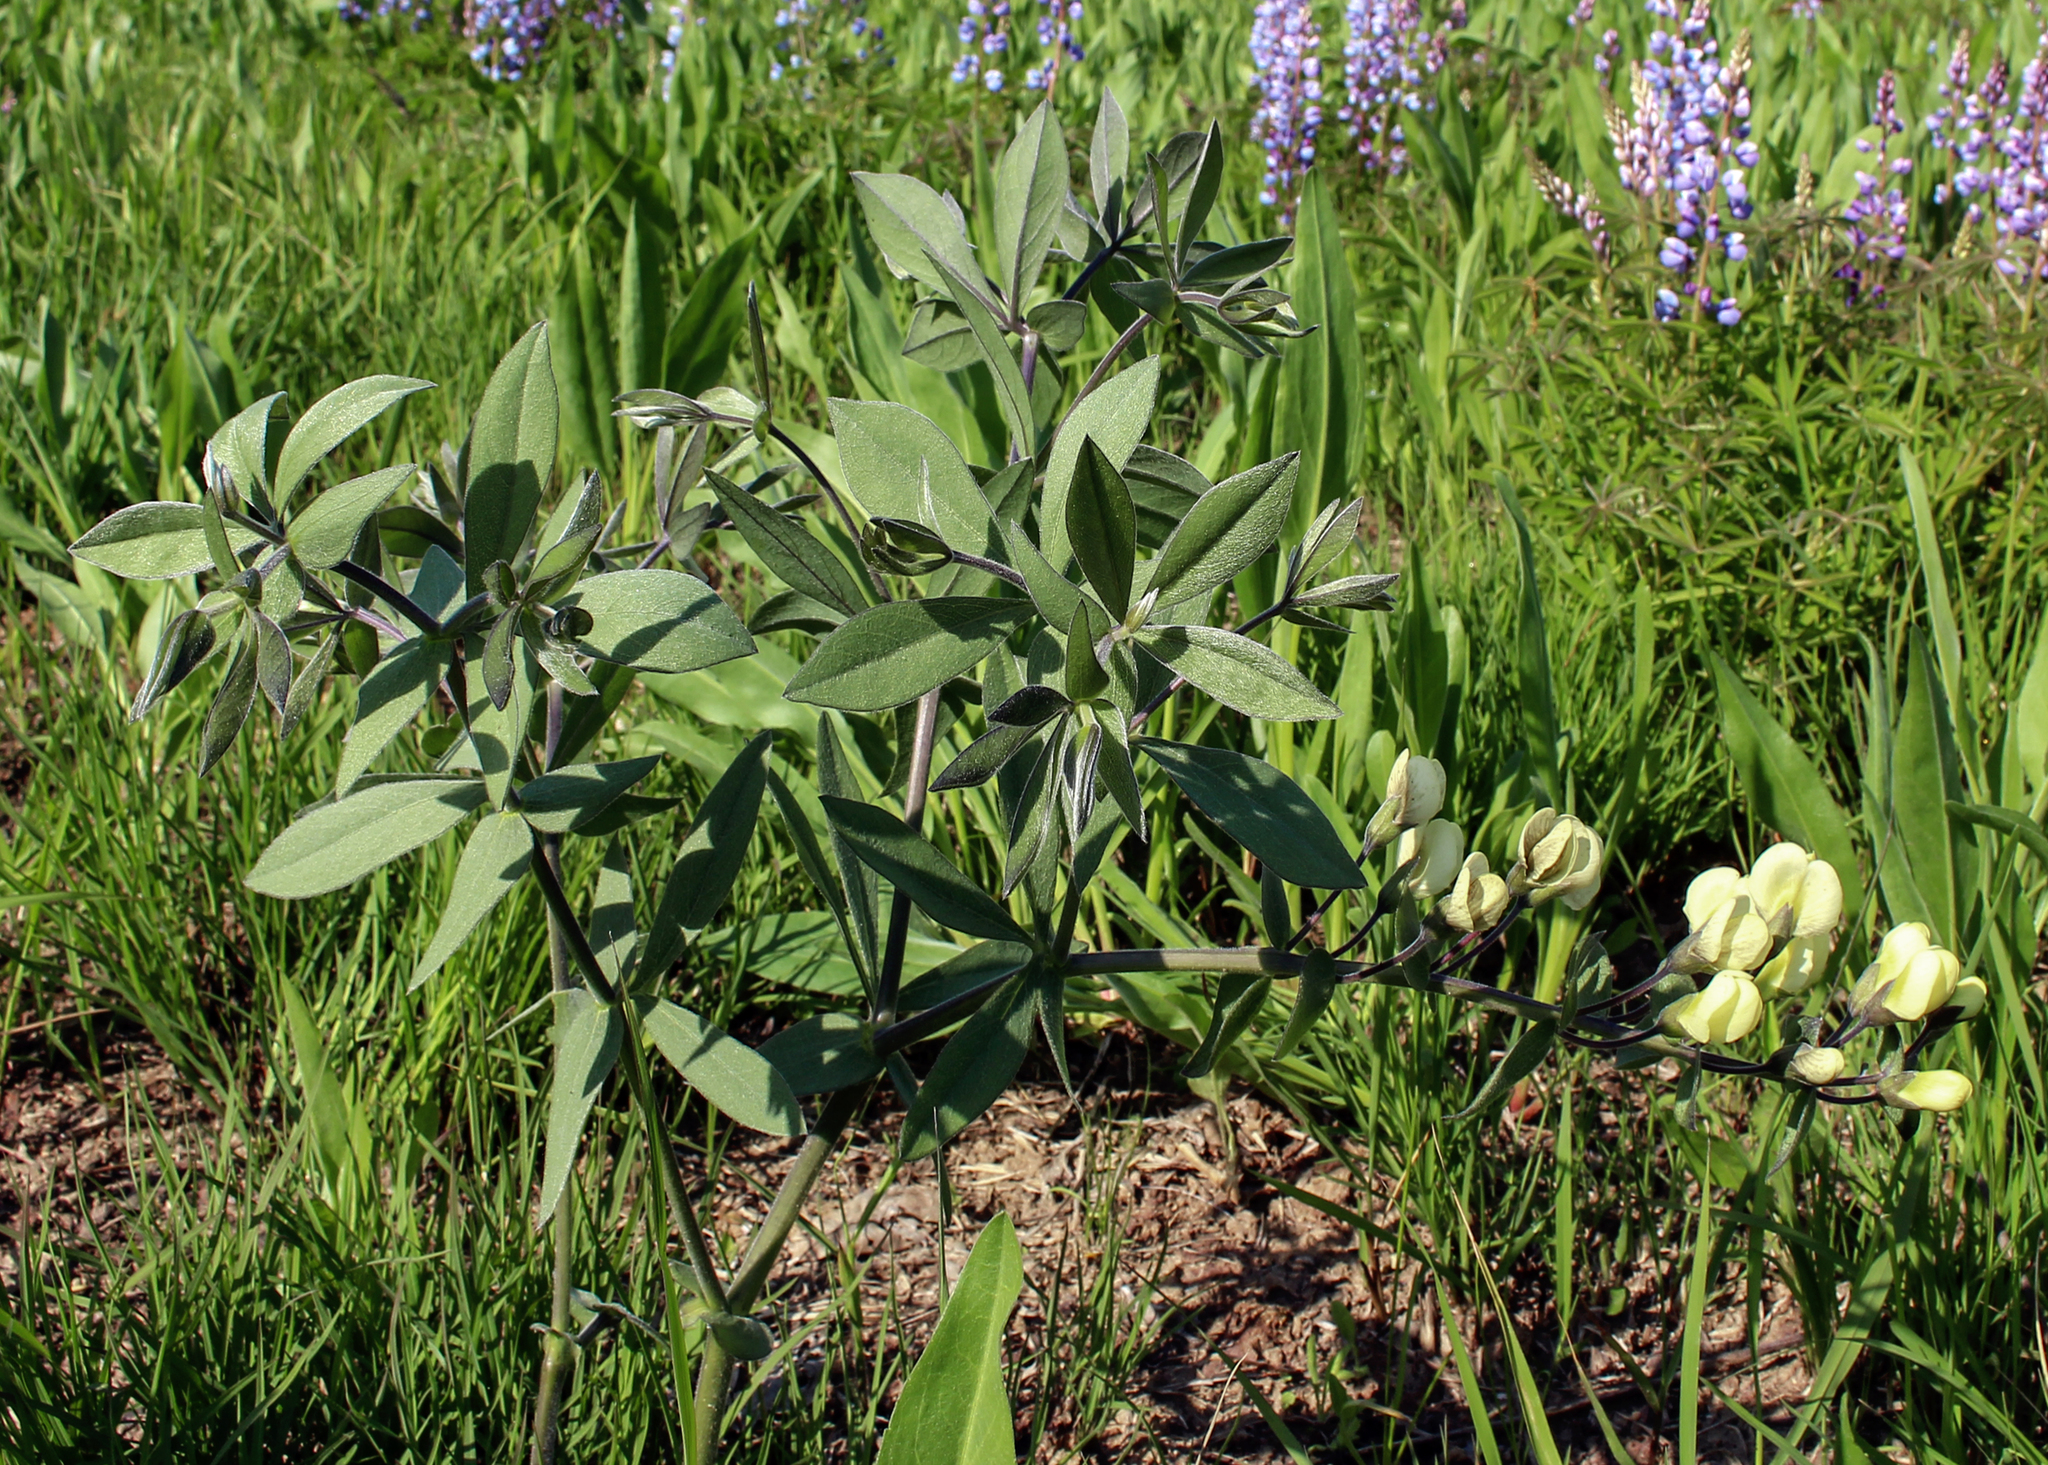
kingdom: Plantae
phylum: Tracheophyta
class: Magnoliopsida
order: Fabales
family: Fabaceae
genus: Baptisia
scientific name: Baptisia bracteata
